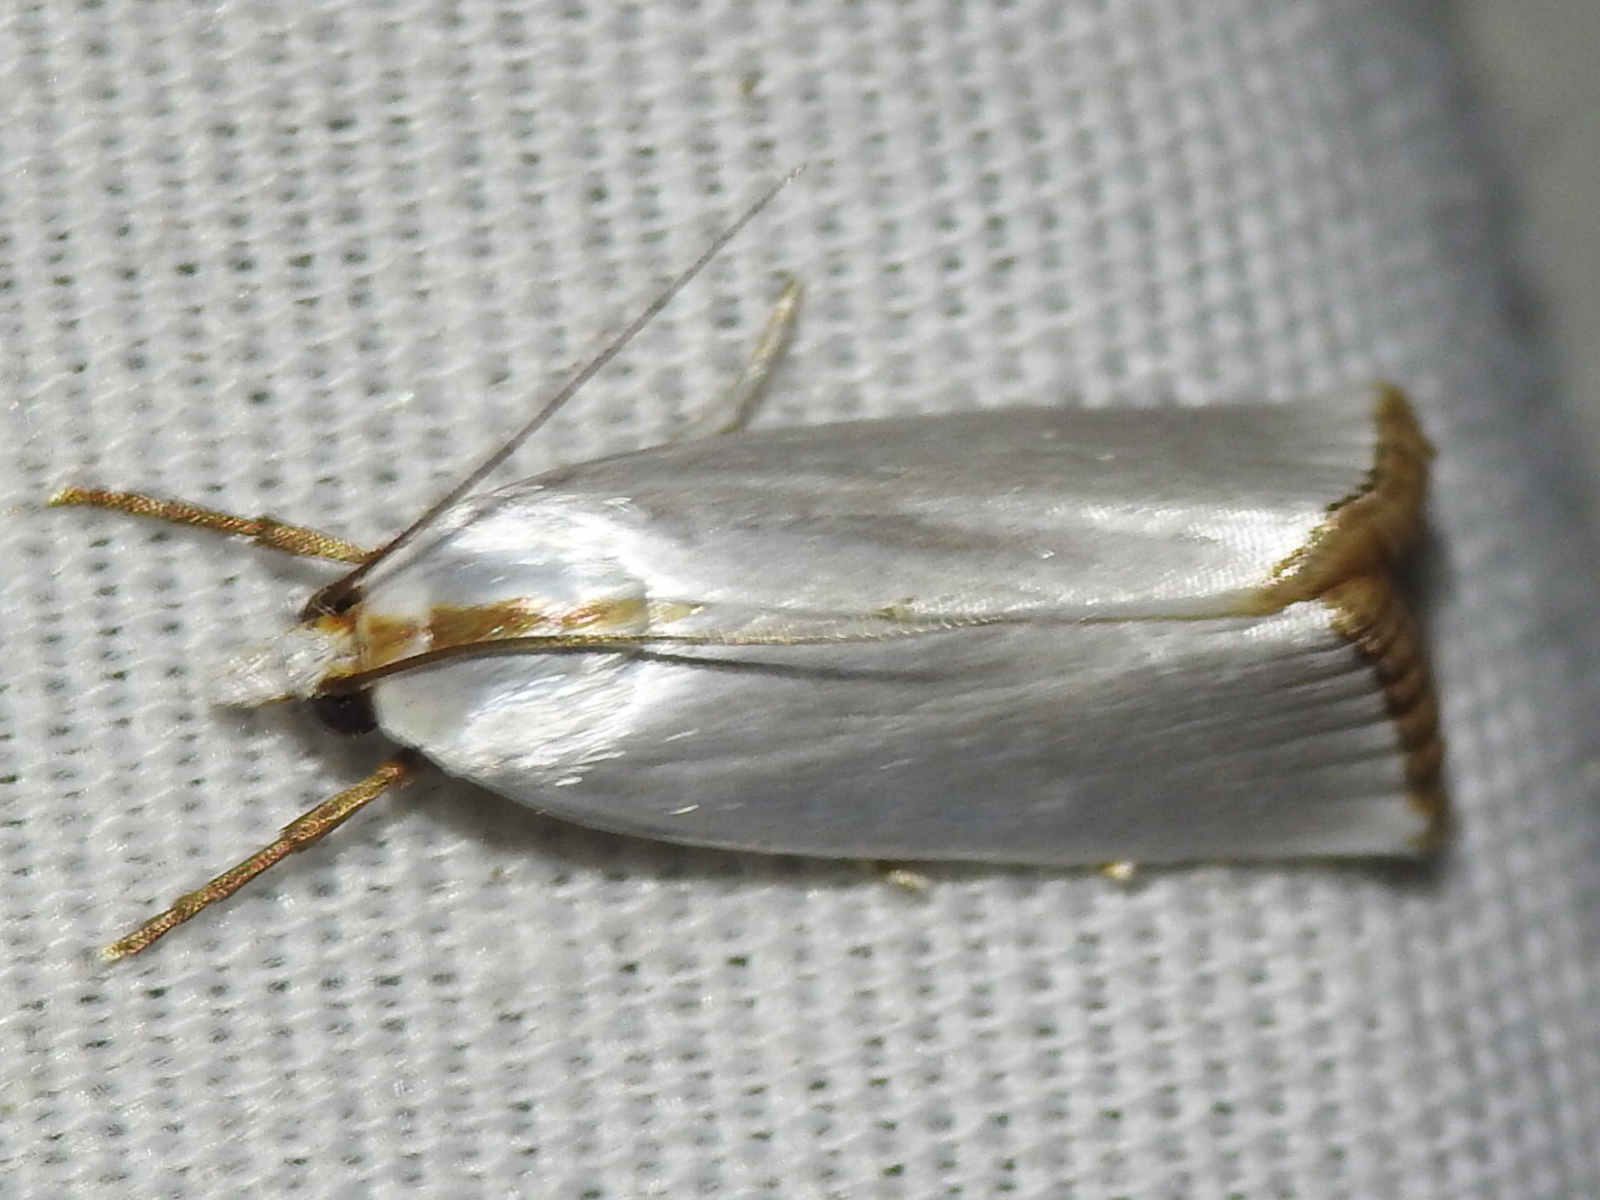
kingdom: Animalia
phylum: Arthropoda
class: Insecta
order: Lepidoptera
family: Crambidae
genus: Argyria
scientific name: Argyria nivalis
